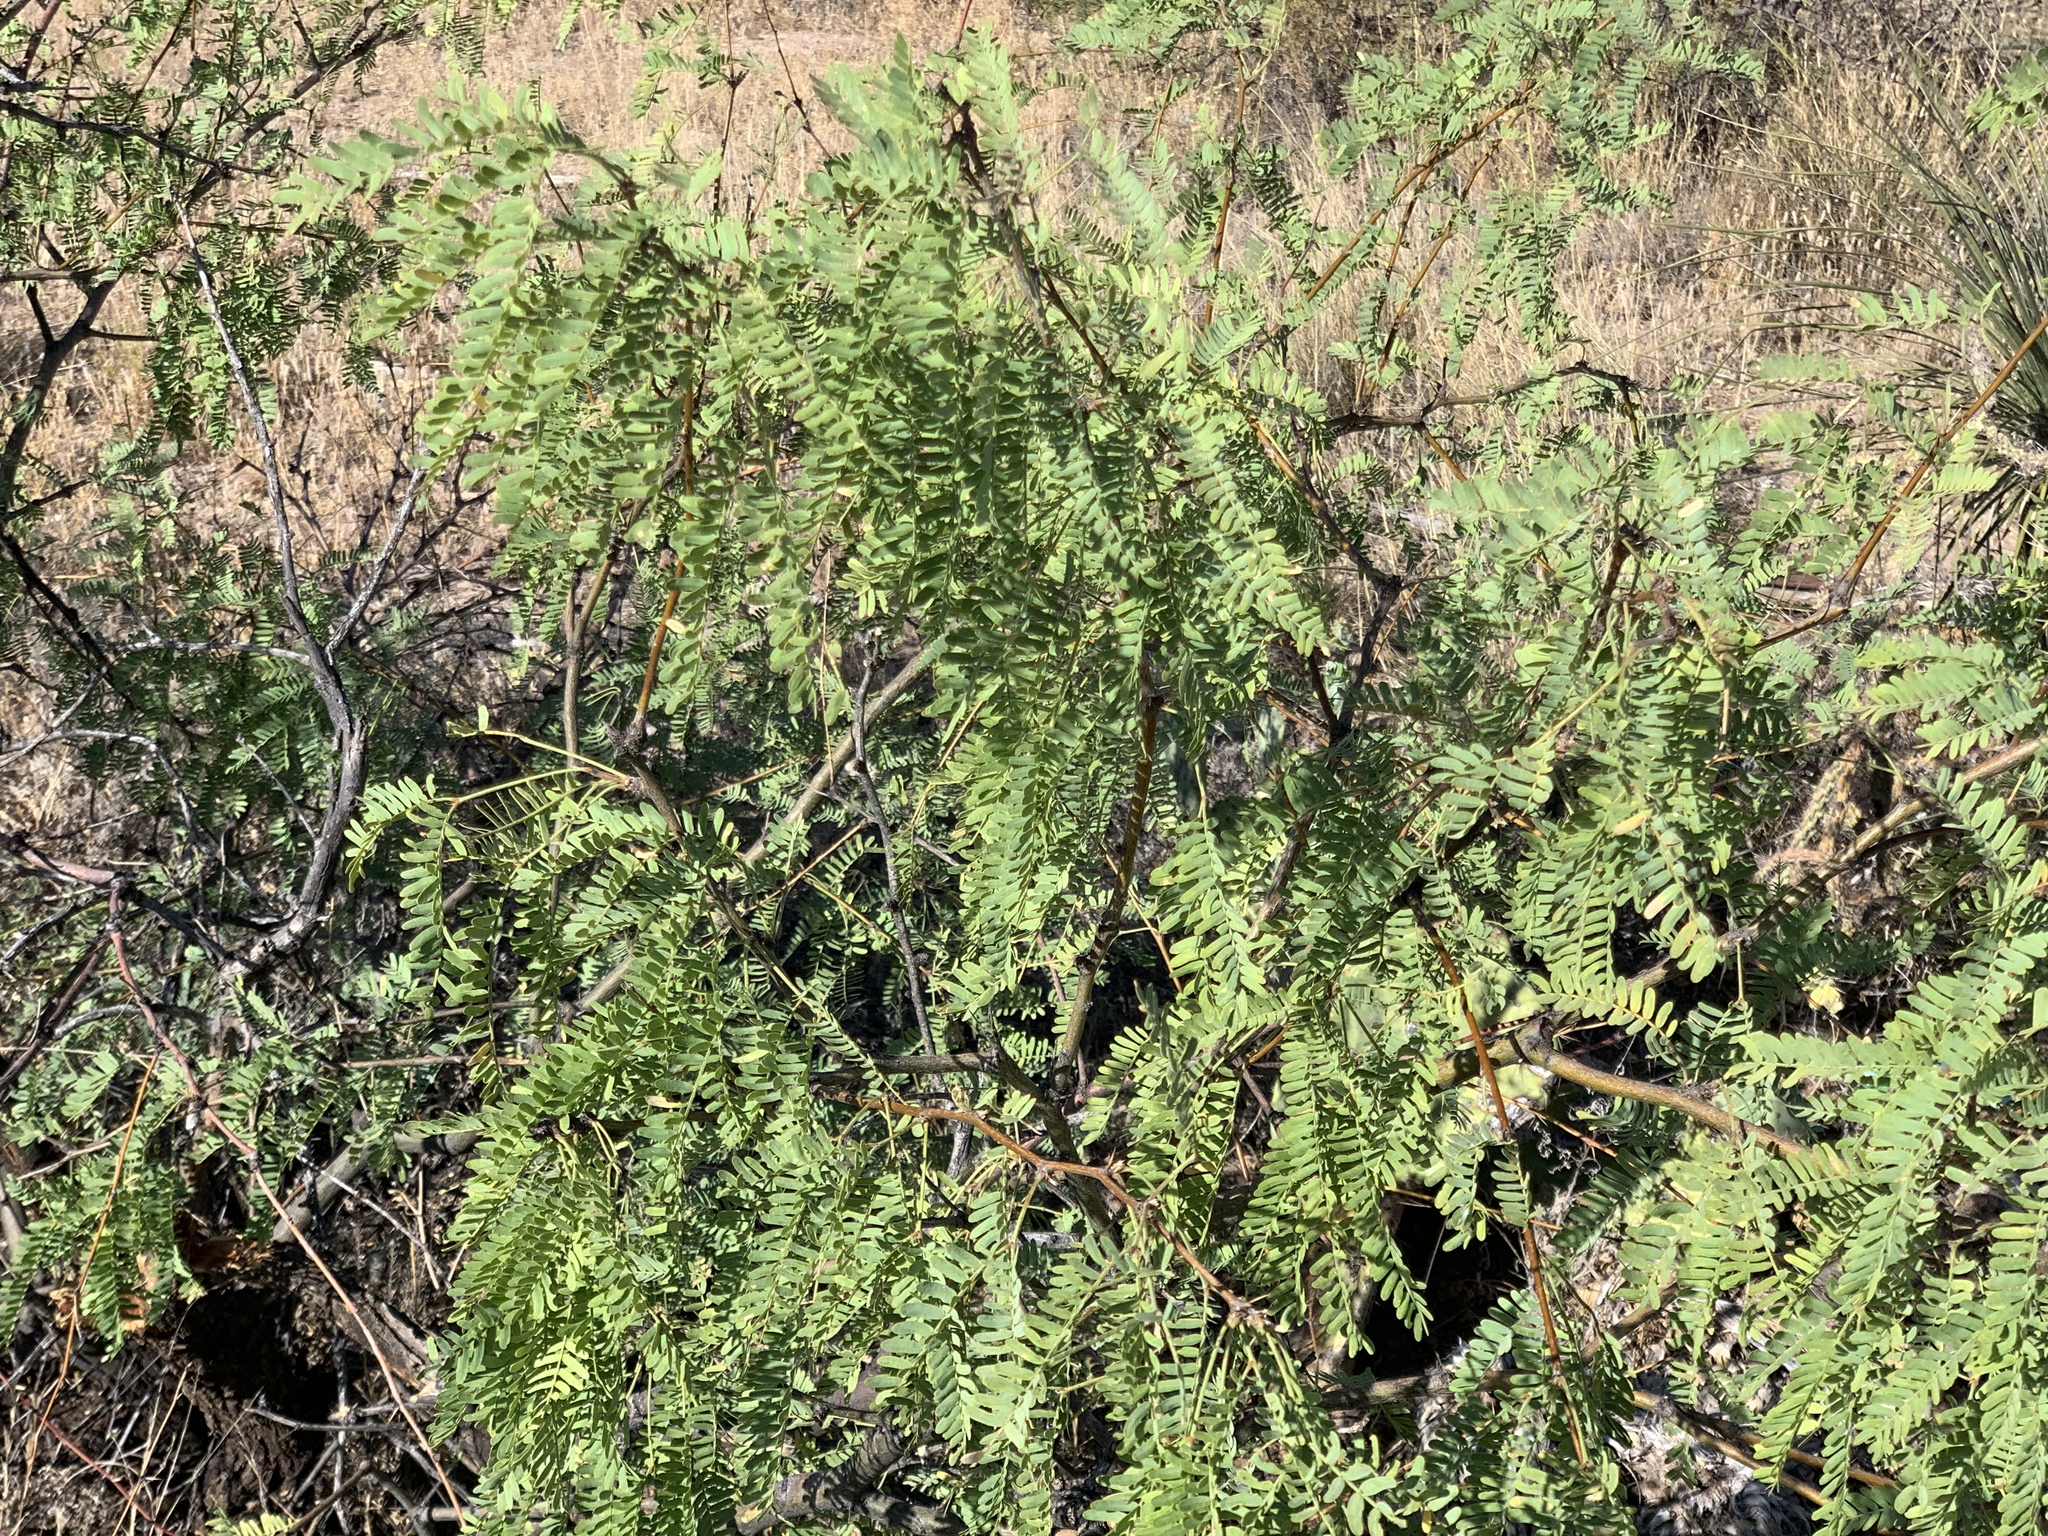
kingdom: Plantae
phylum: Tracheophyta
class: Magnoliopsida
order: Fabales
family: Fabaceae
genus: Prosopis
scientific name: Prosopis velutina
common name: Velvet mesquite
